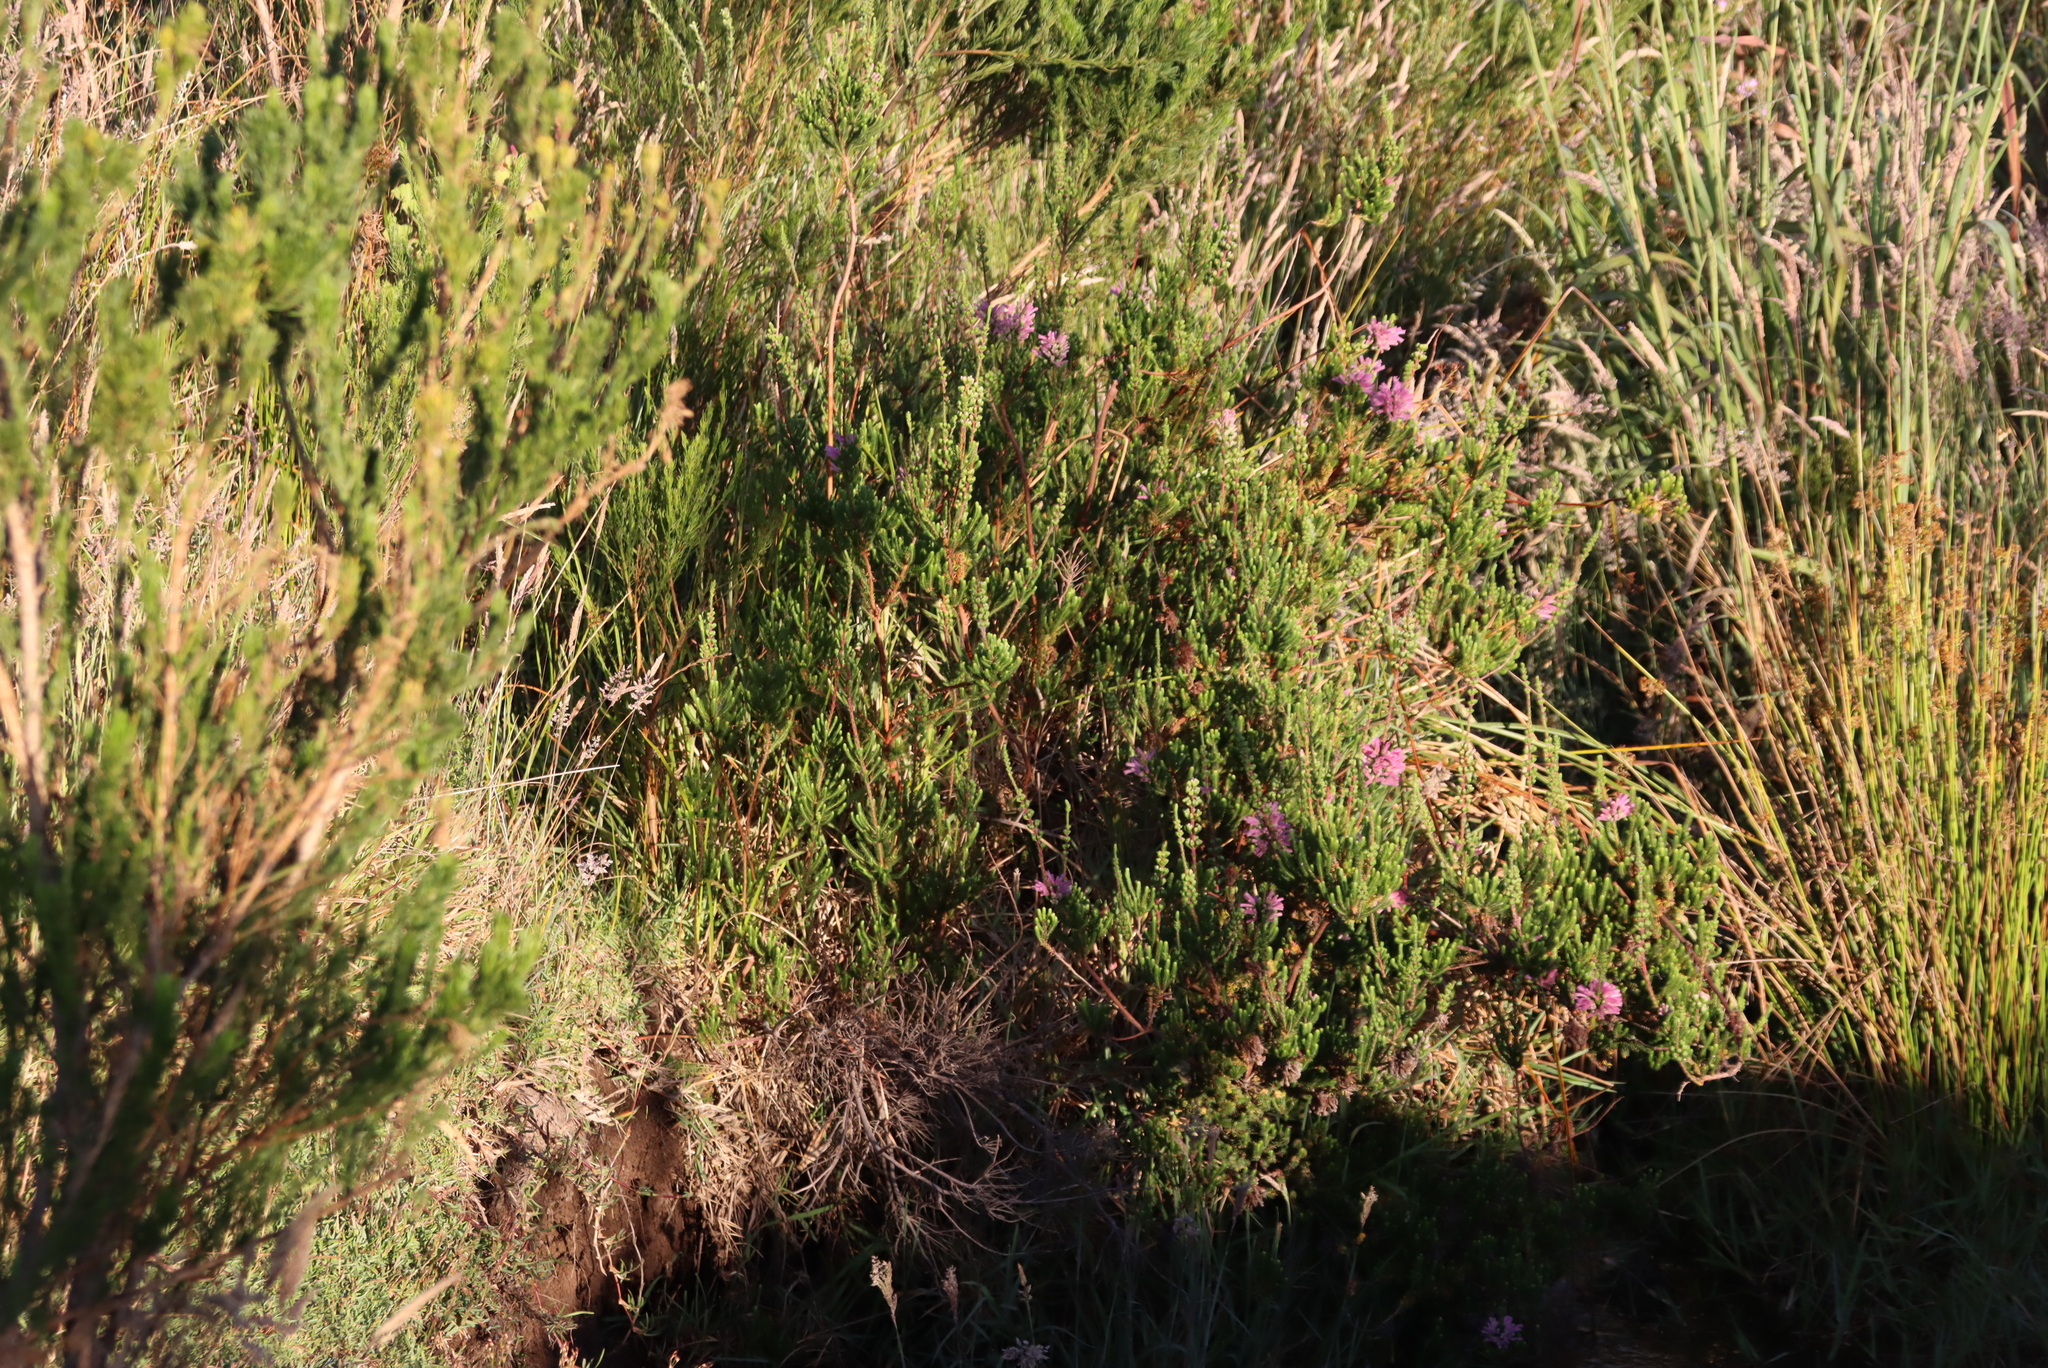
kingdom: Plantae
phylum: Tracheophyta
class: Magnoliopsida
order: Ericales
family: Ericaceae
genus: Erica
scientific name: Erica verticillata
